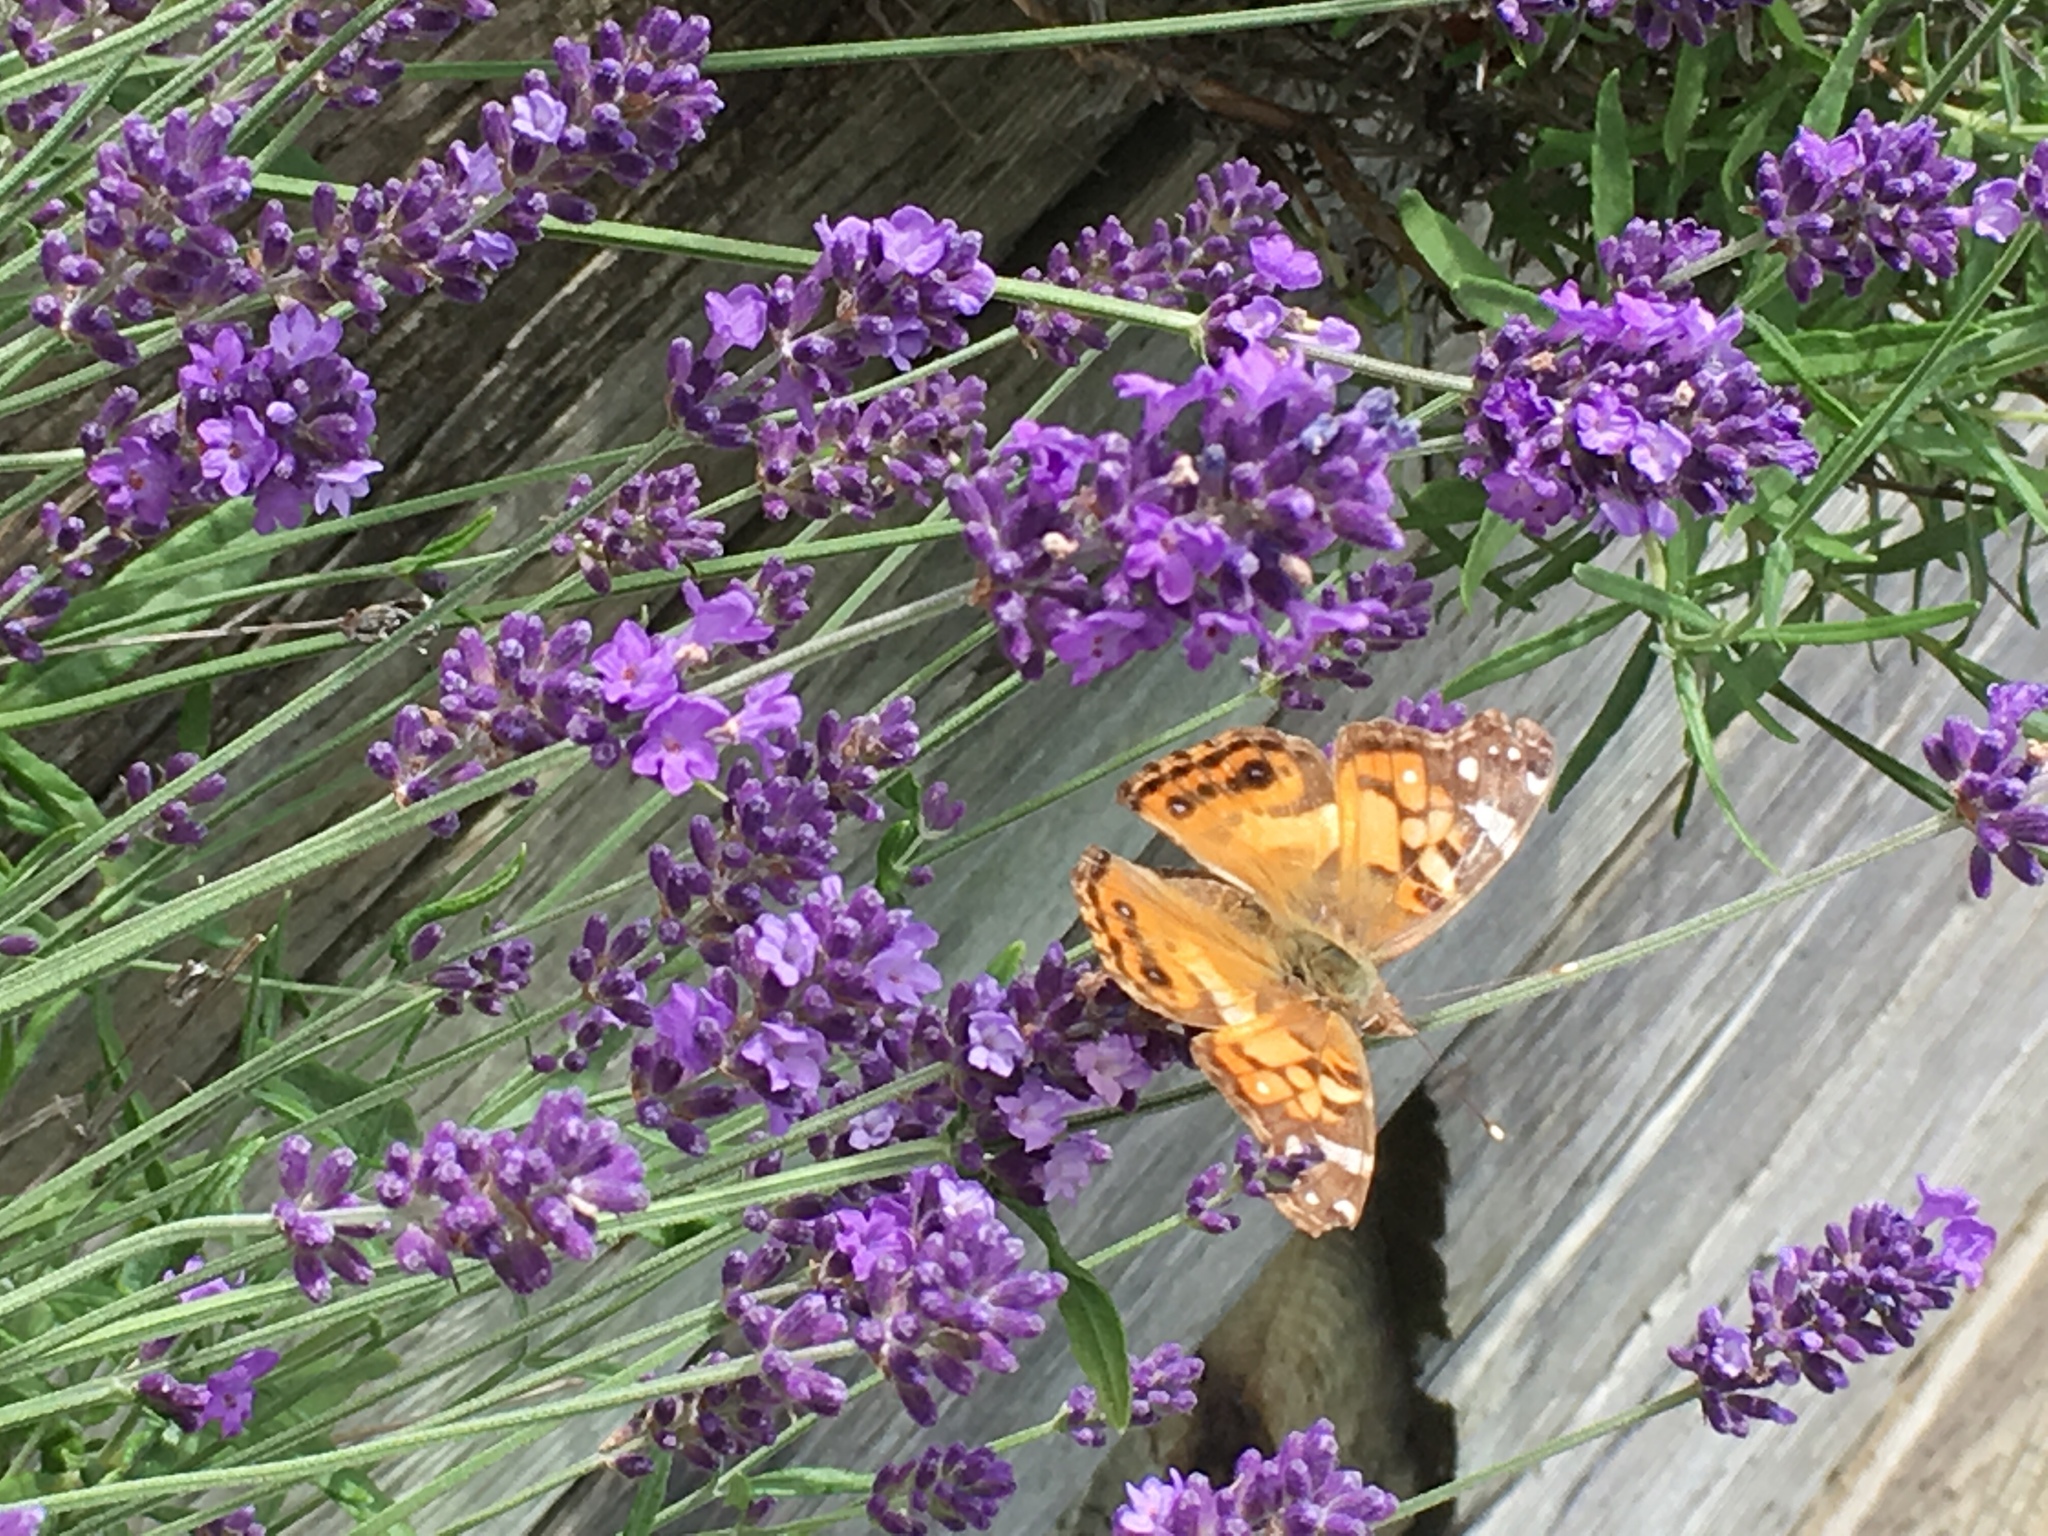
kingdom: Animalia
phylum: Arthropoda
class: Insecta
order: Lepidoptera
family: Nymphalidae
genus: Vanessa
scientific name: Vanessa virginiensis
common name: American lady
